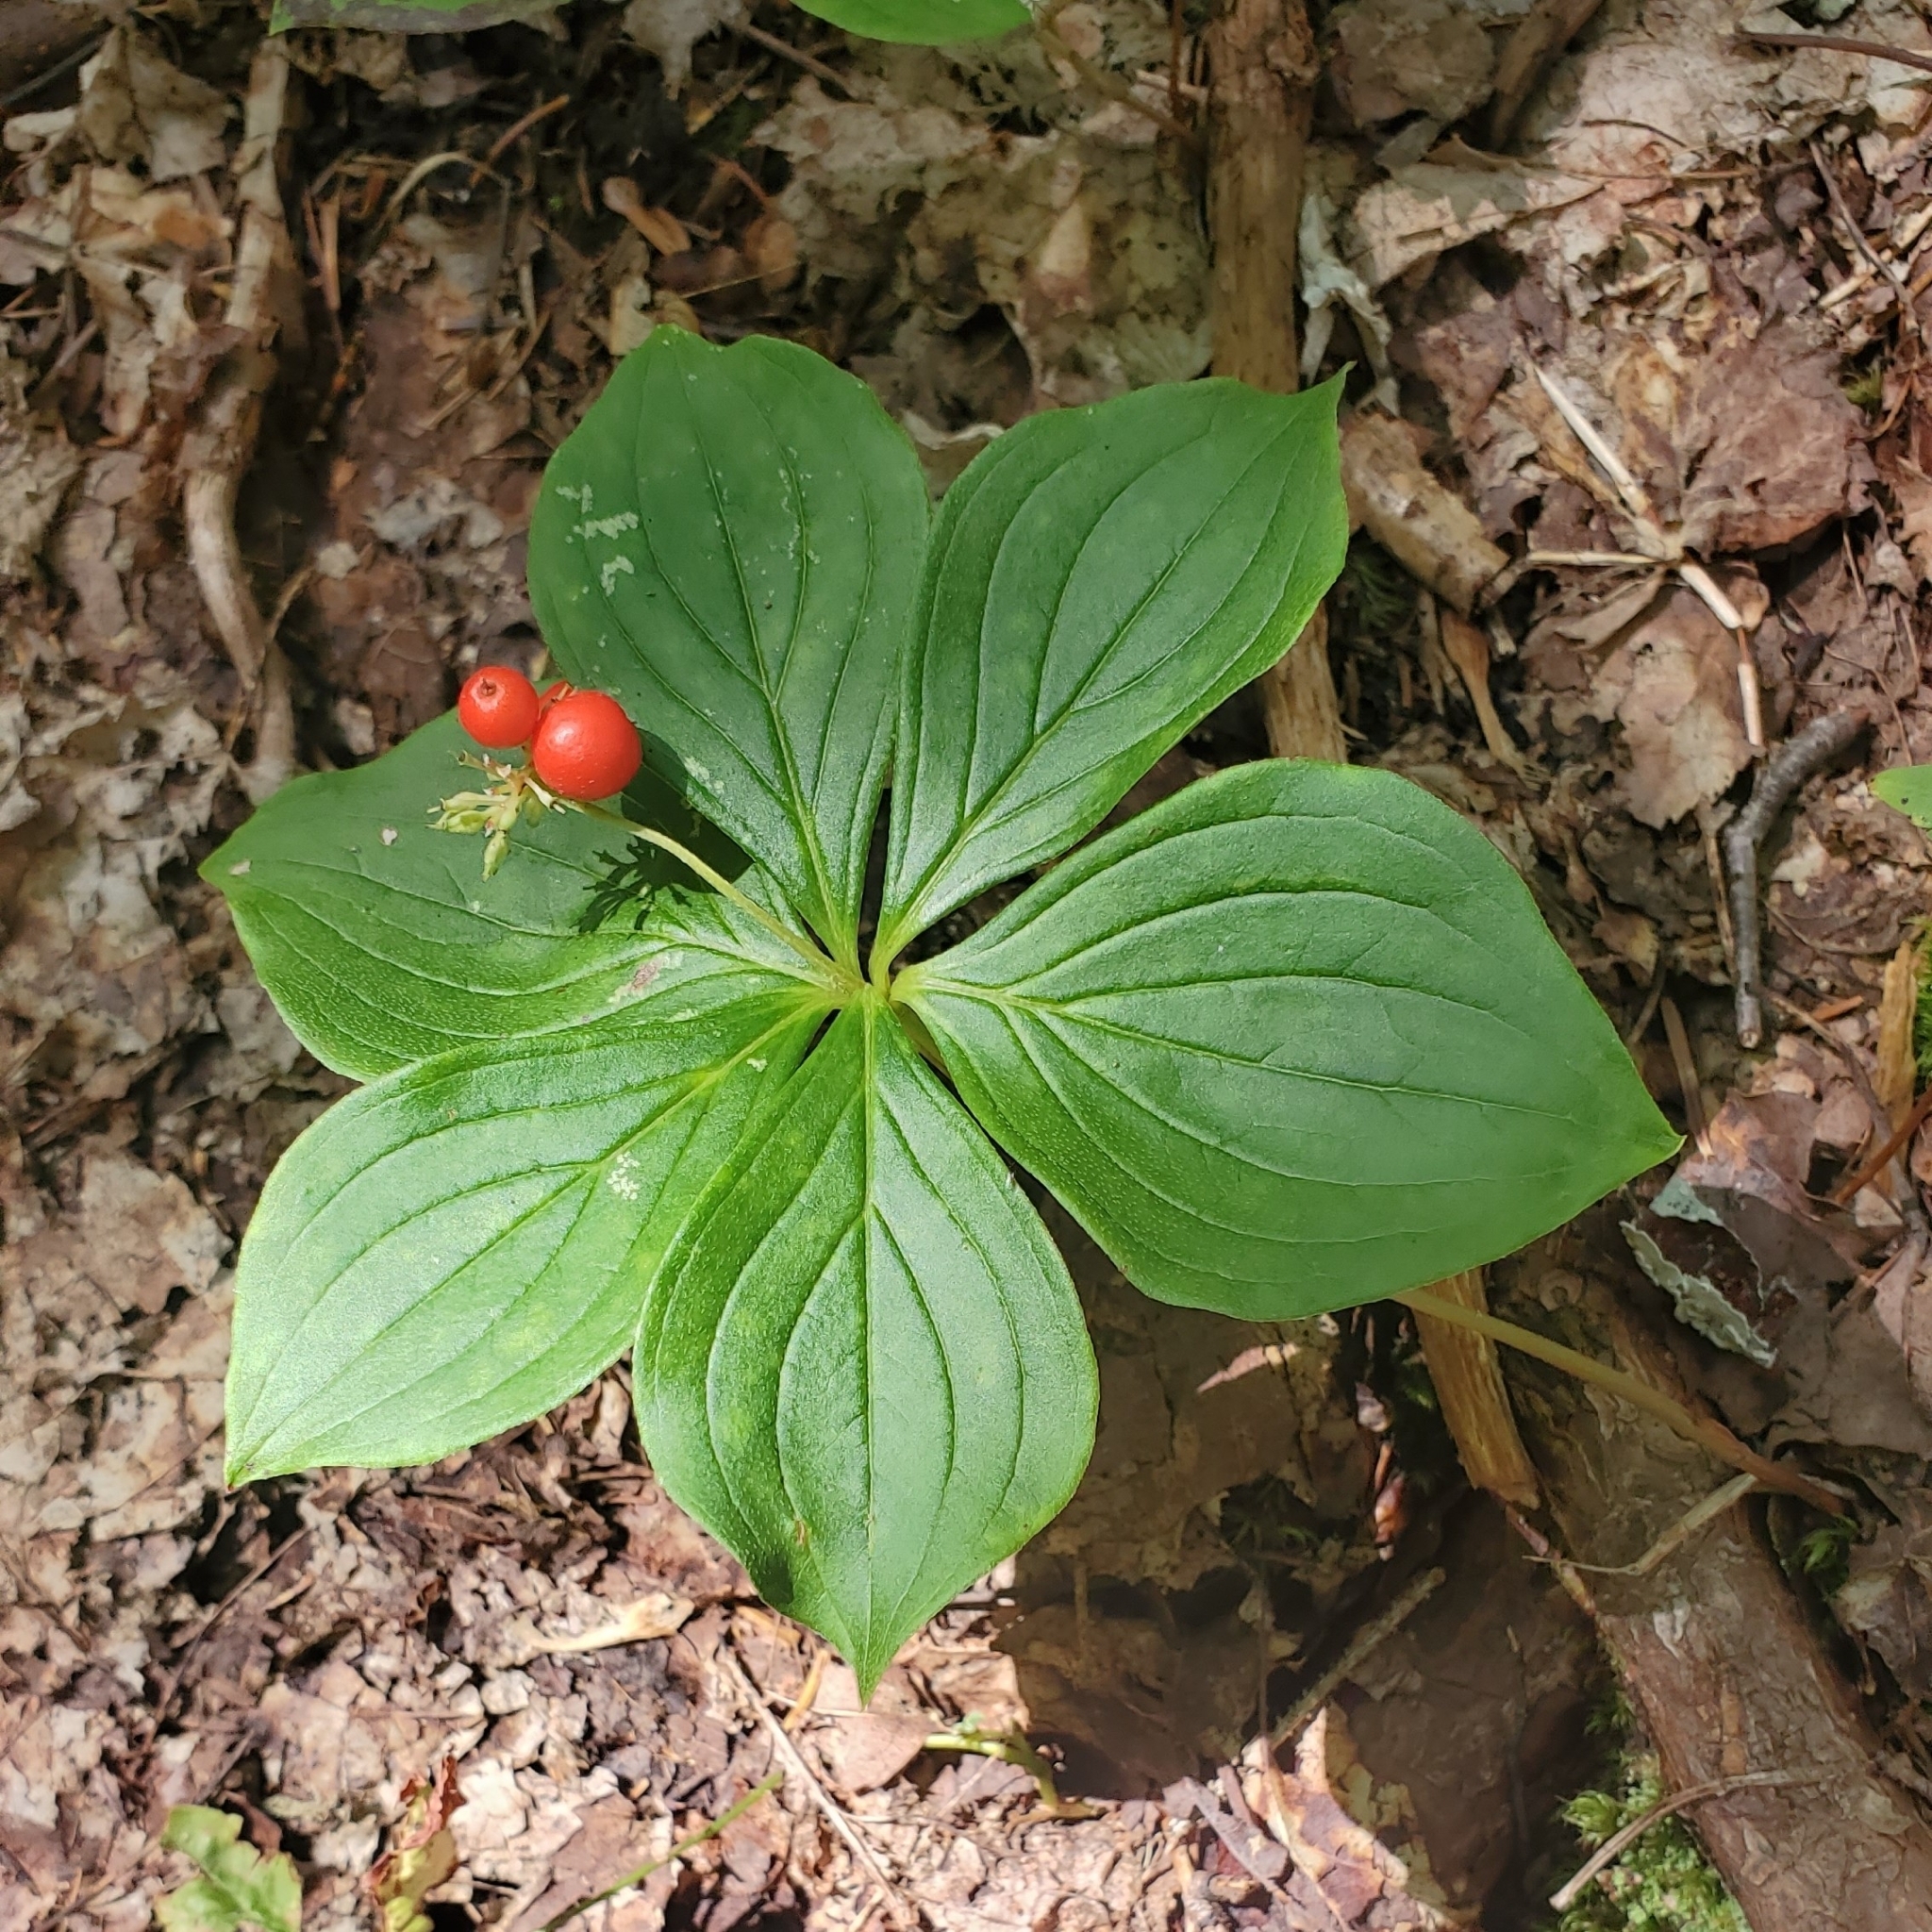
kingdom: Plantae
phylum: Tracheophyta
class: Magnoliopsida
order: Cornales
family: Cornaceae
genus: Cornus
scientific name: Cornus canadensis
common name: Creeping dogwood
